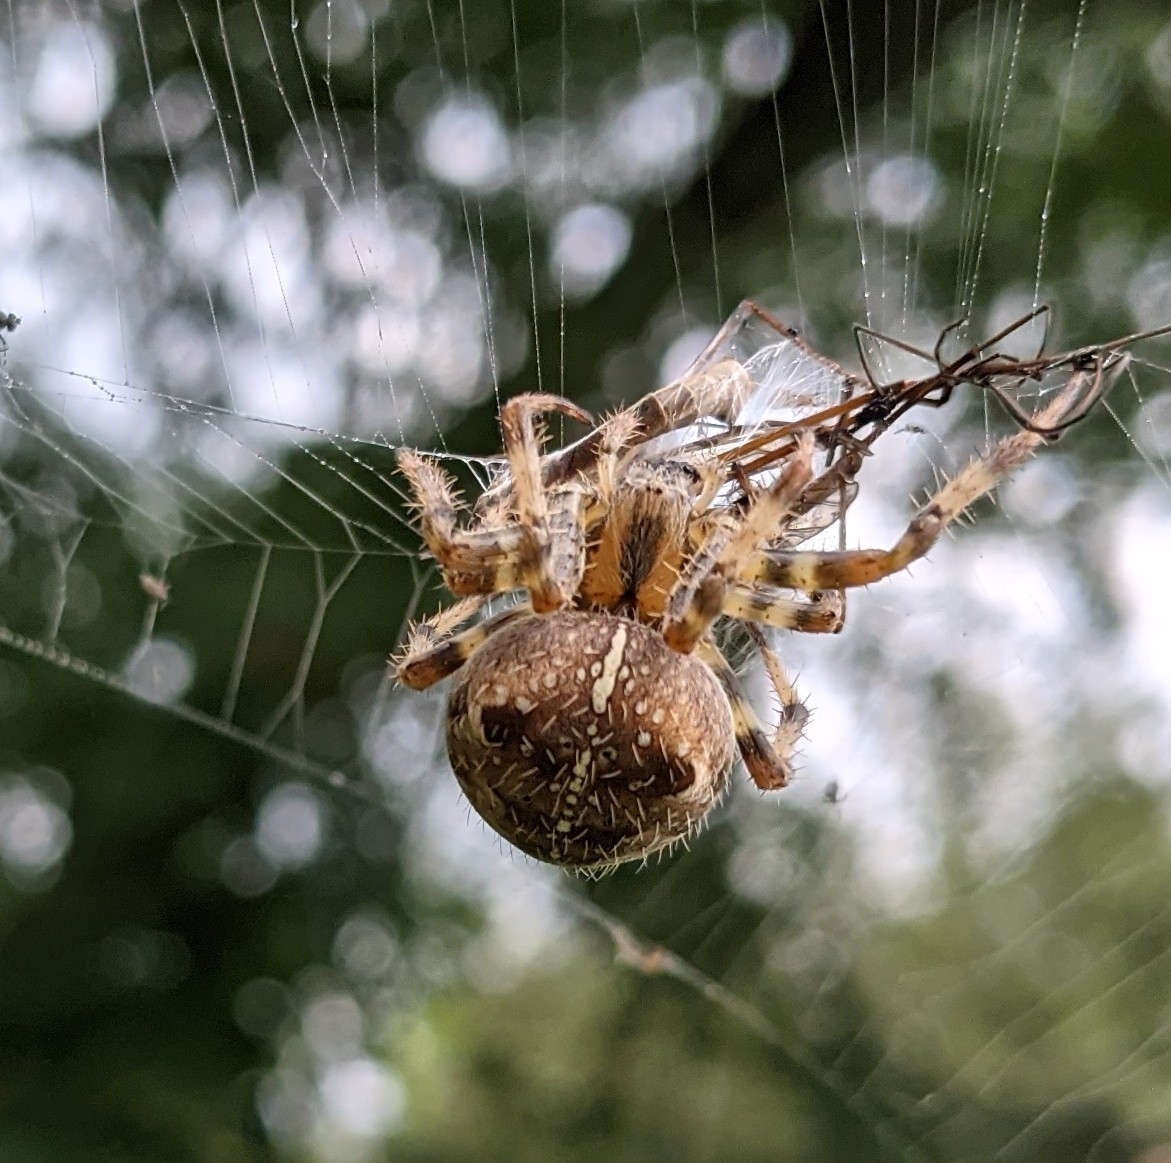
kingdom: Animalia
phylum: Arthropoda
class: Arachnida
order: Araneae
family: Araneidae
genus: Araneus
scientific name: Araneus diadematus
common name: Cross orbweaver
